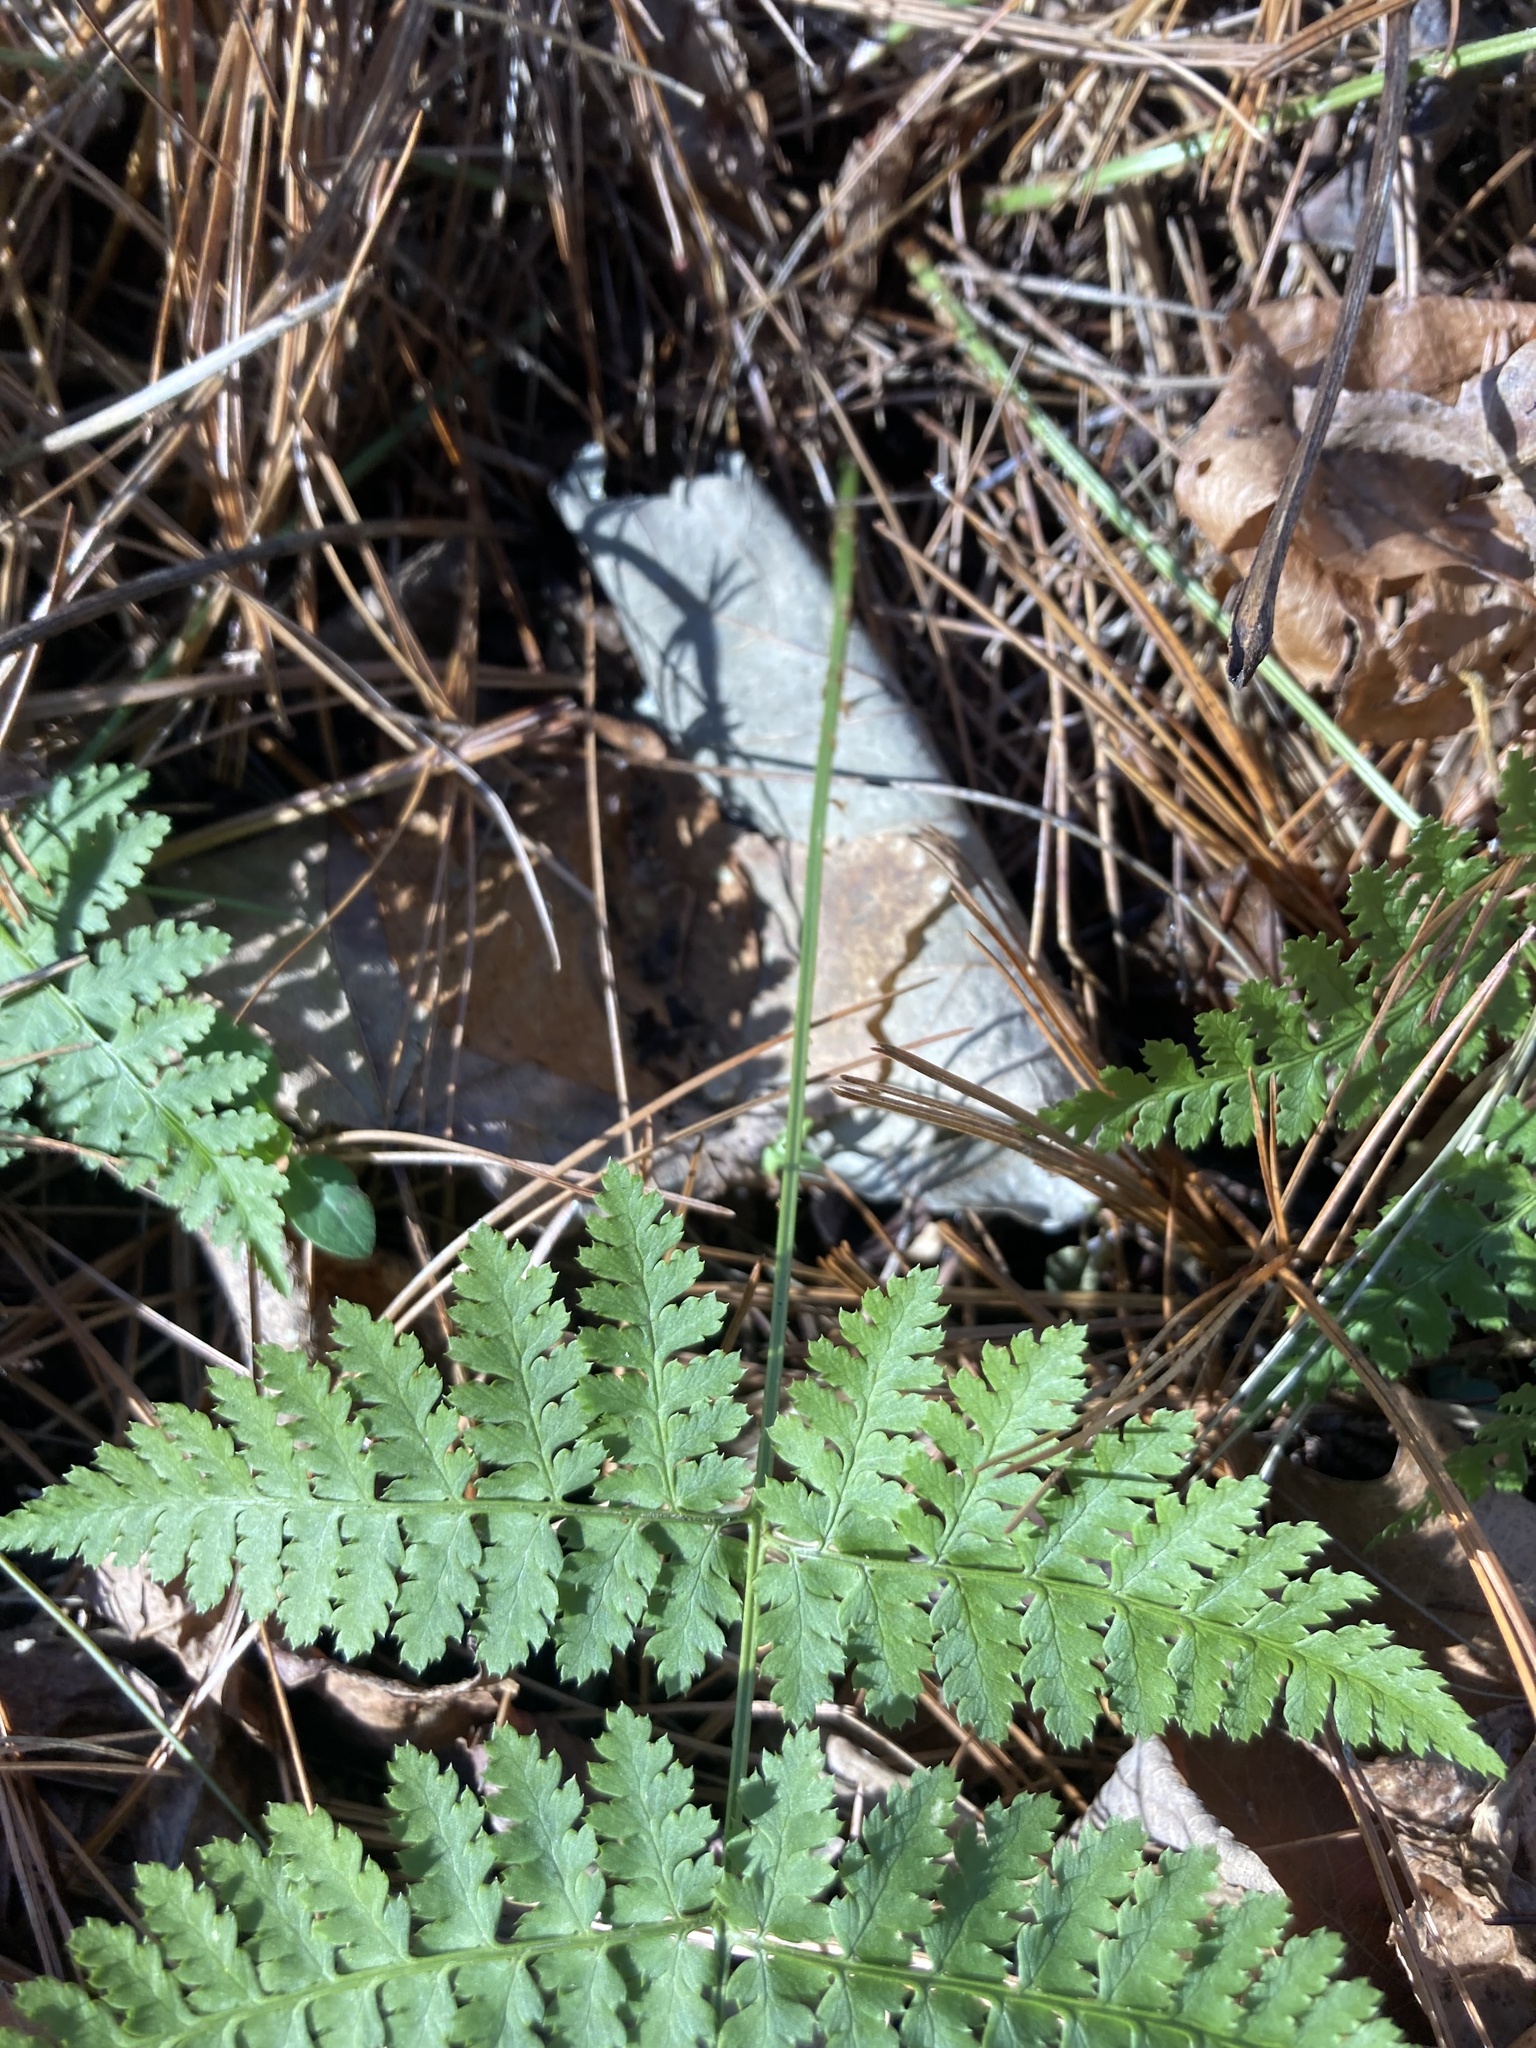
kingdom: Plantae
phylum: Tracheophyta
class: Polypodiopsida
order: Polypodiales
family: Dryopteridaceae
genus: Dryopteris
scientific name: Dryopteris intermedia
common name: Evergreen wood fern
